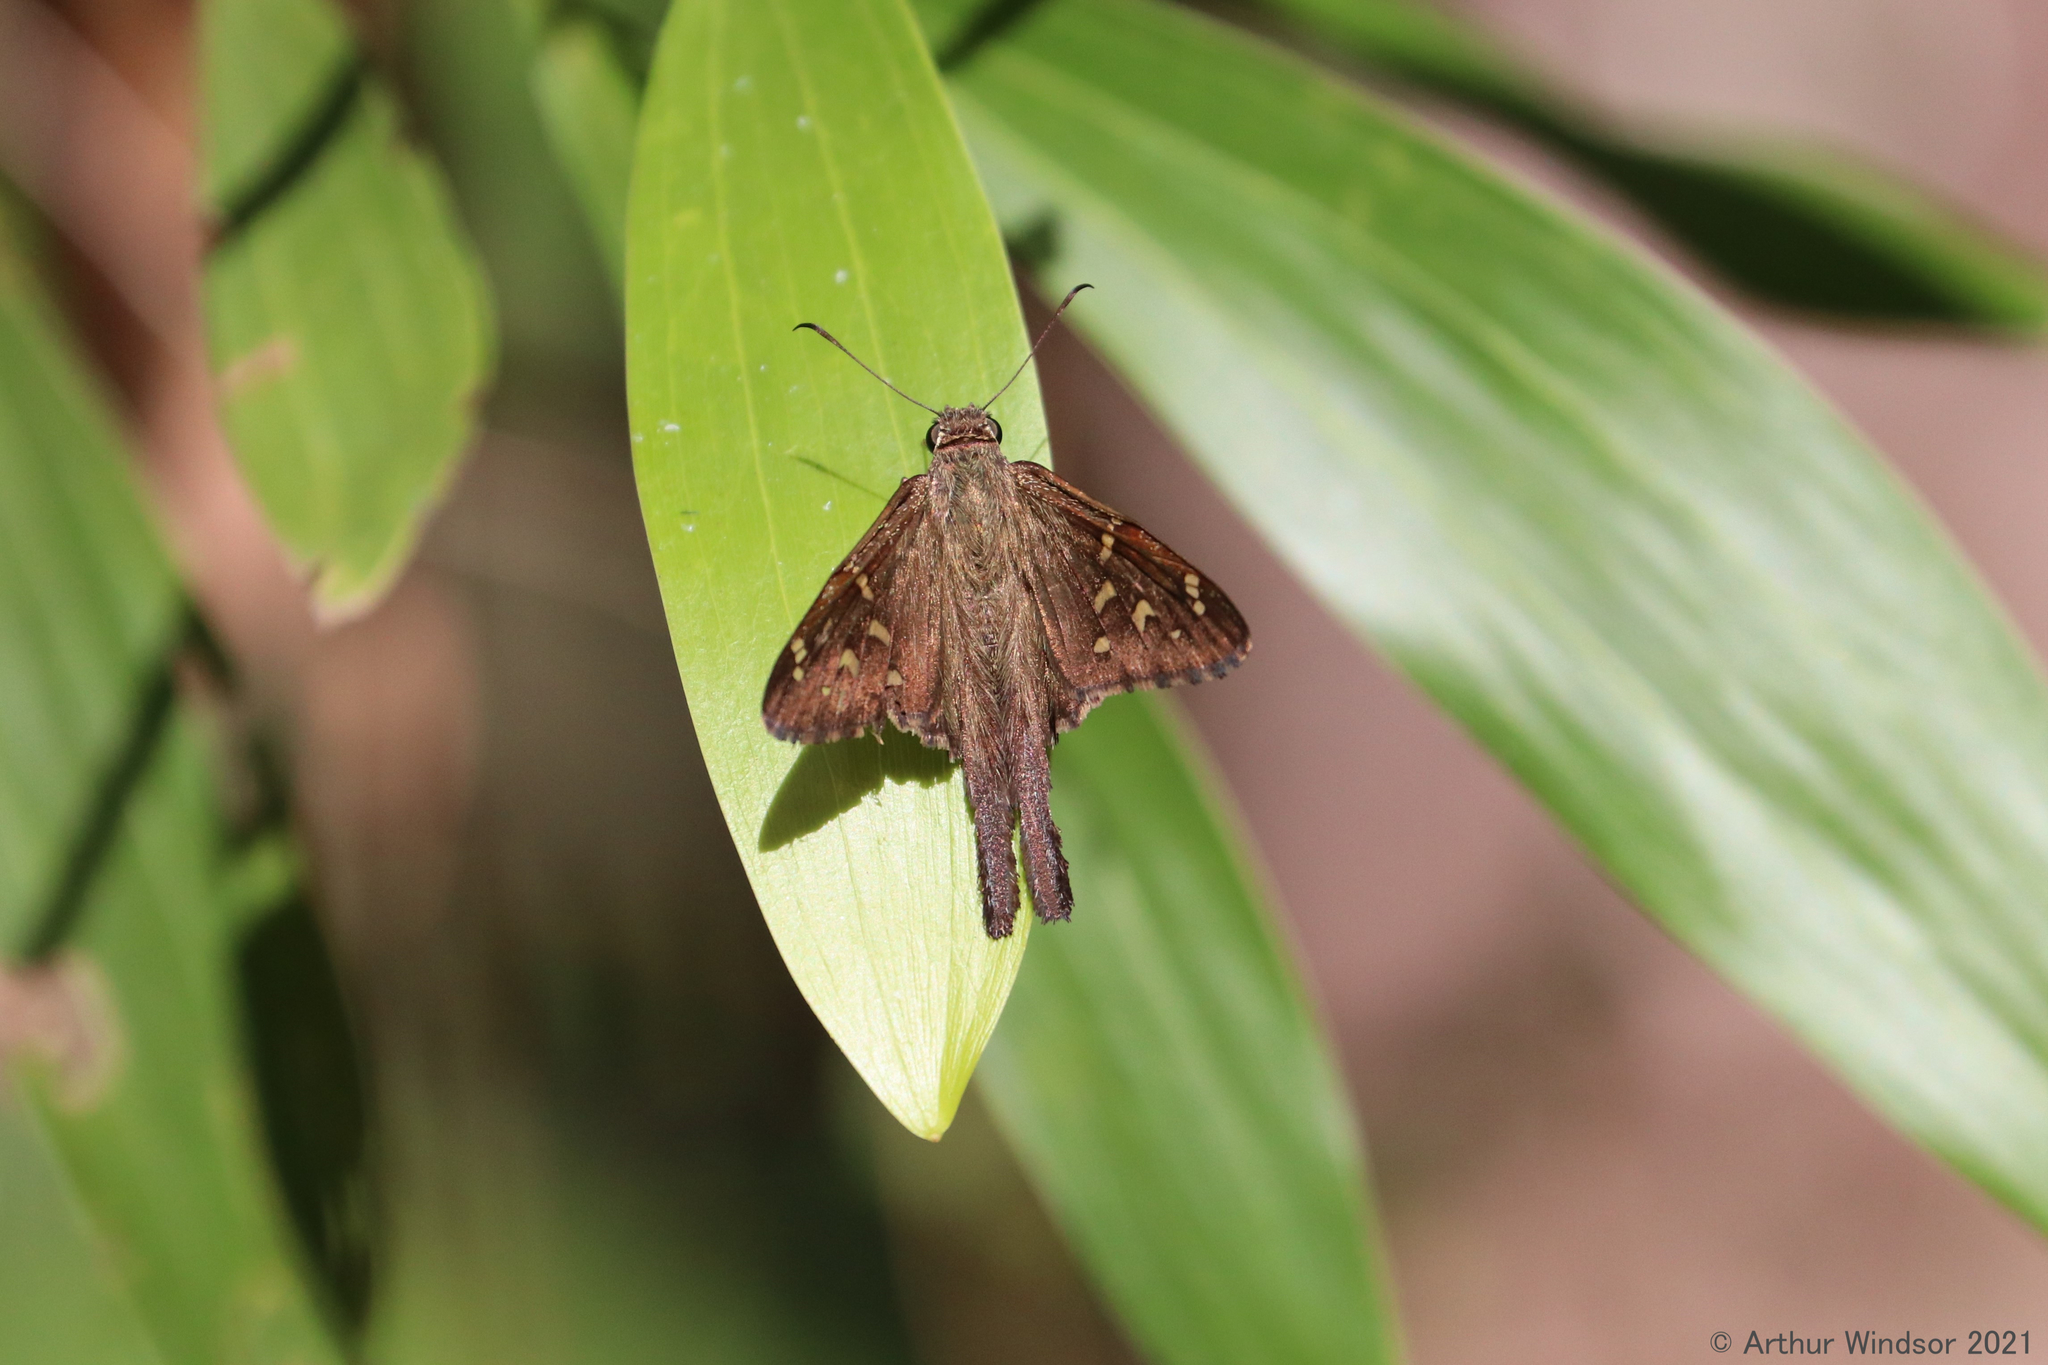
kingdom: Animalia
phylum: Arthropoda
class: Insecta
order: Lepidoptera
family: Hesperiidae
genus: Thorybes
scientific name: Thorybes
